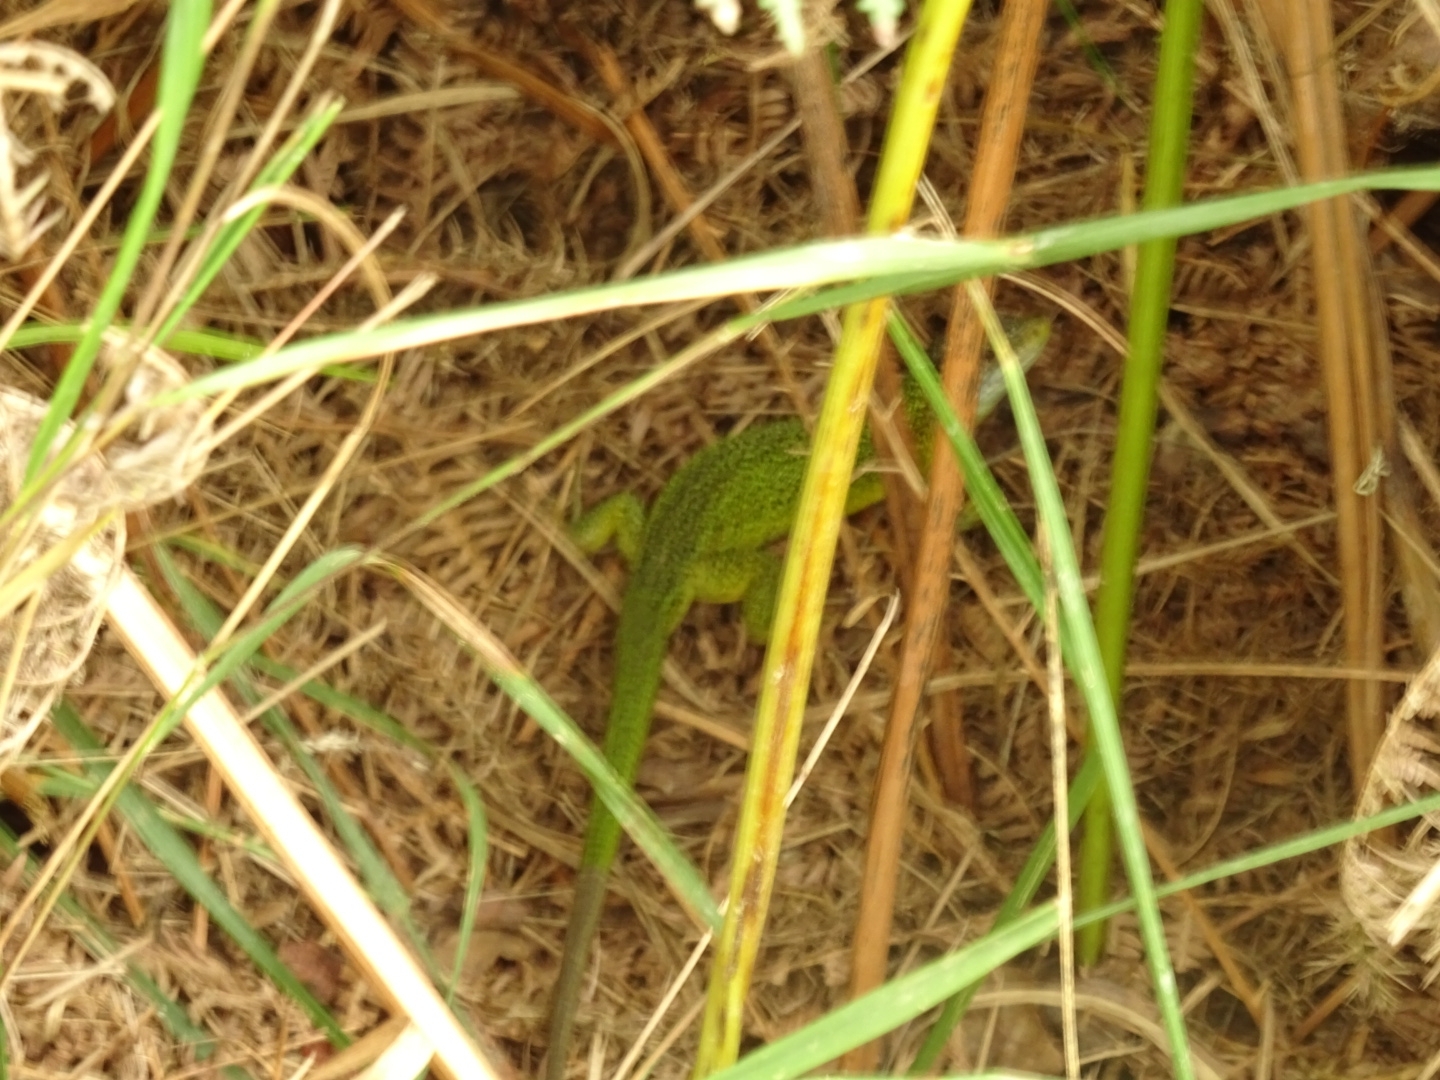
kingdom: Animalia
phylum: Chordata
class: Squamata
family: Lacertidae
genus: Lacerta
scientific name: Lacerta bilineata
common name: Western green lizard
